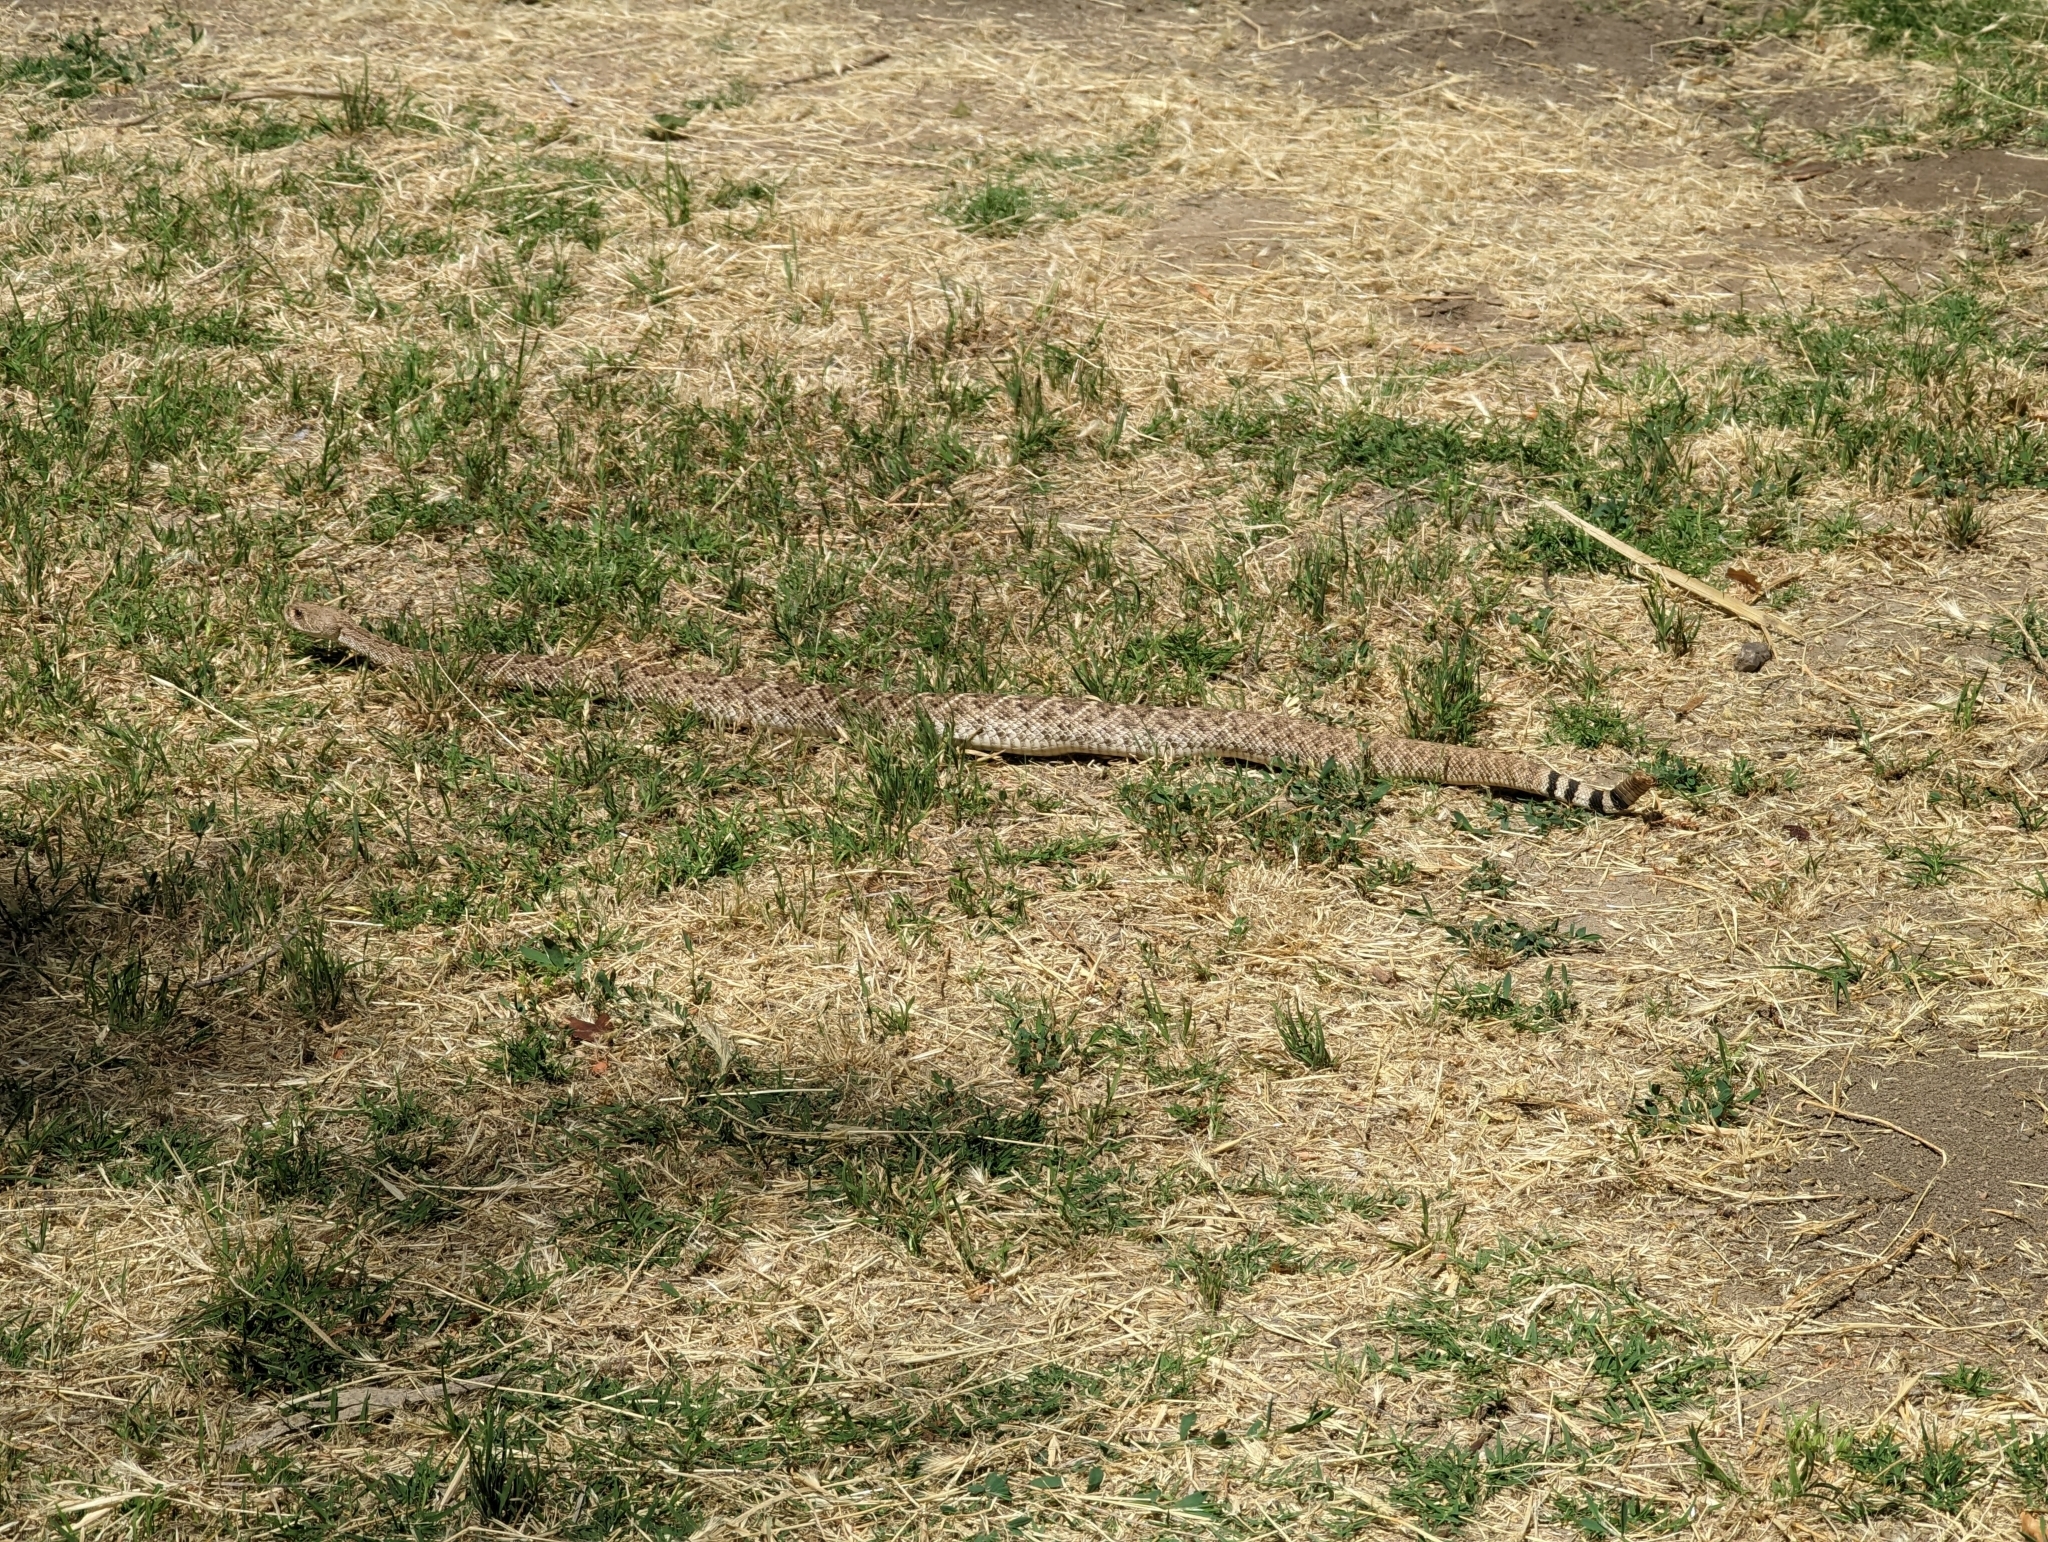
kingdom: Animalia
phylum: Chordata
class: Squamata
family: Viperidae
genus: Crotalus
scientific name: Crotalus atrox
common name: Western diamond-backed rattlesnake
